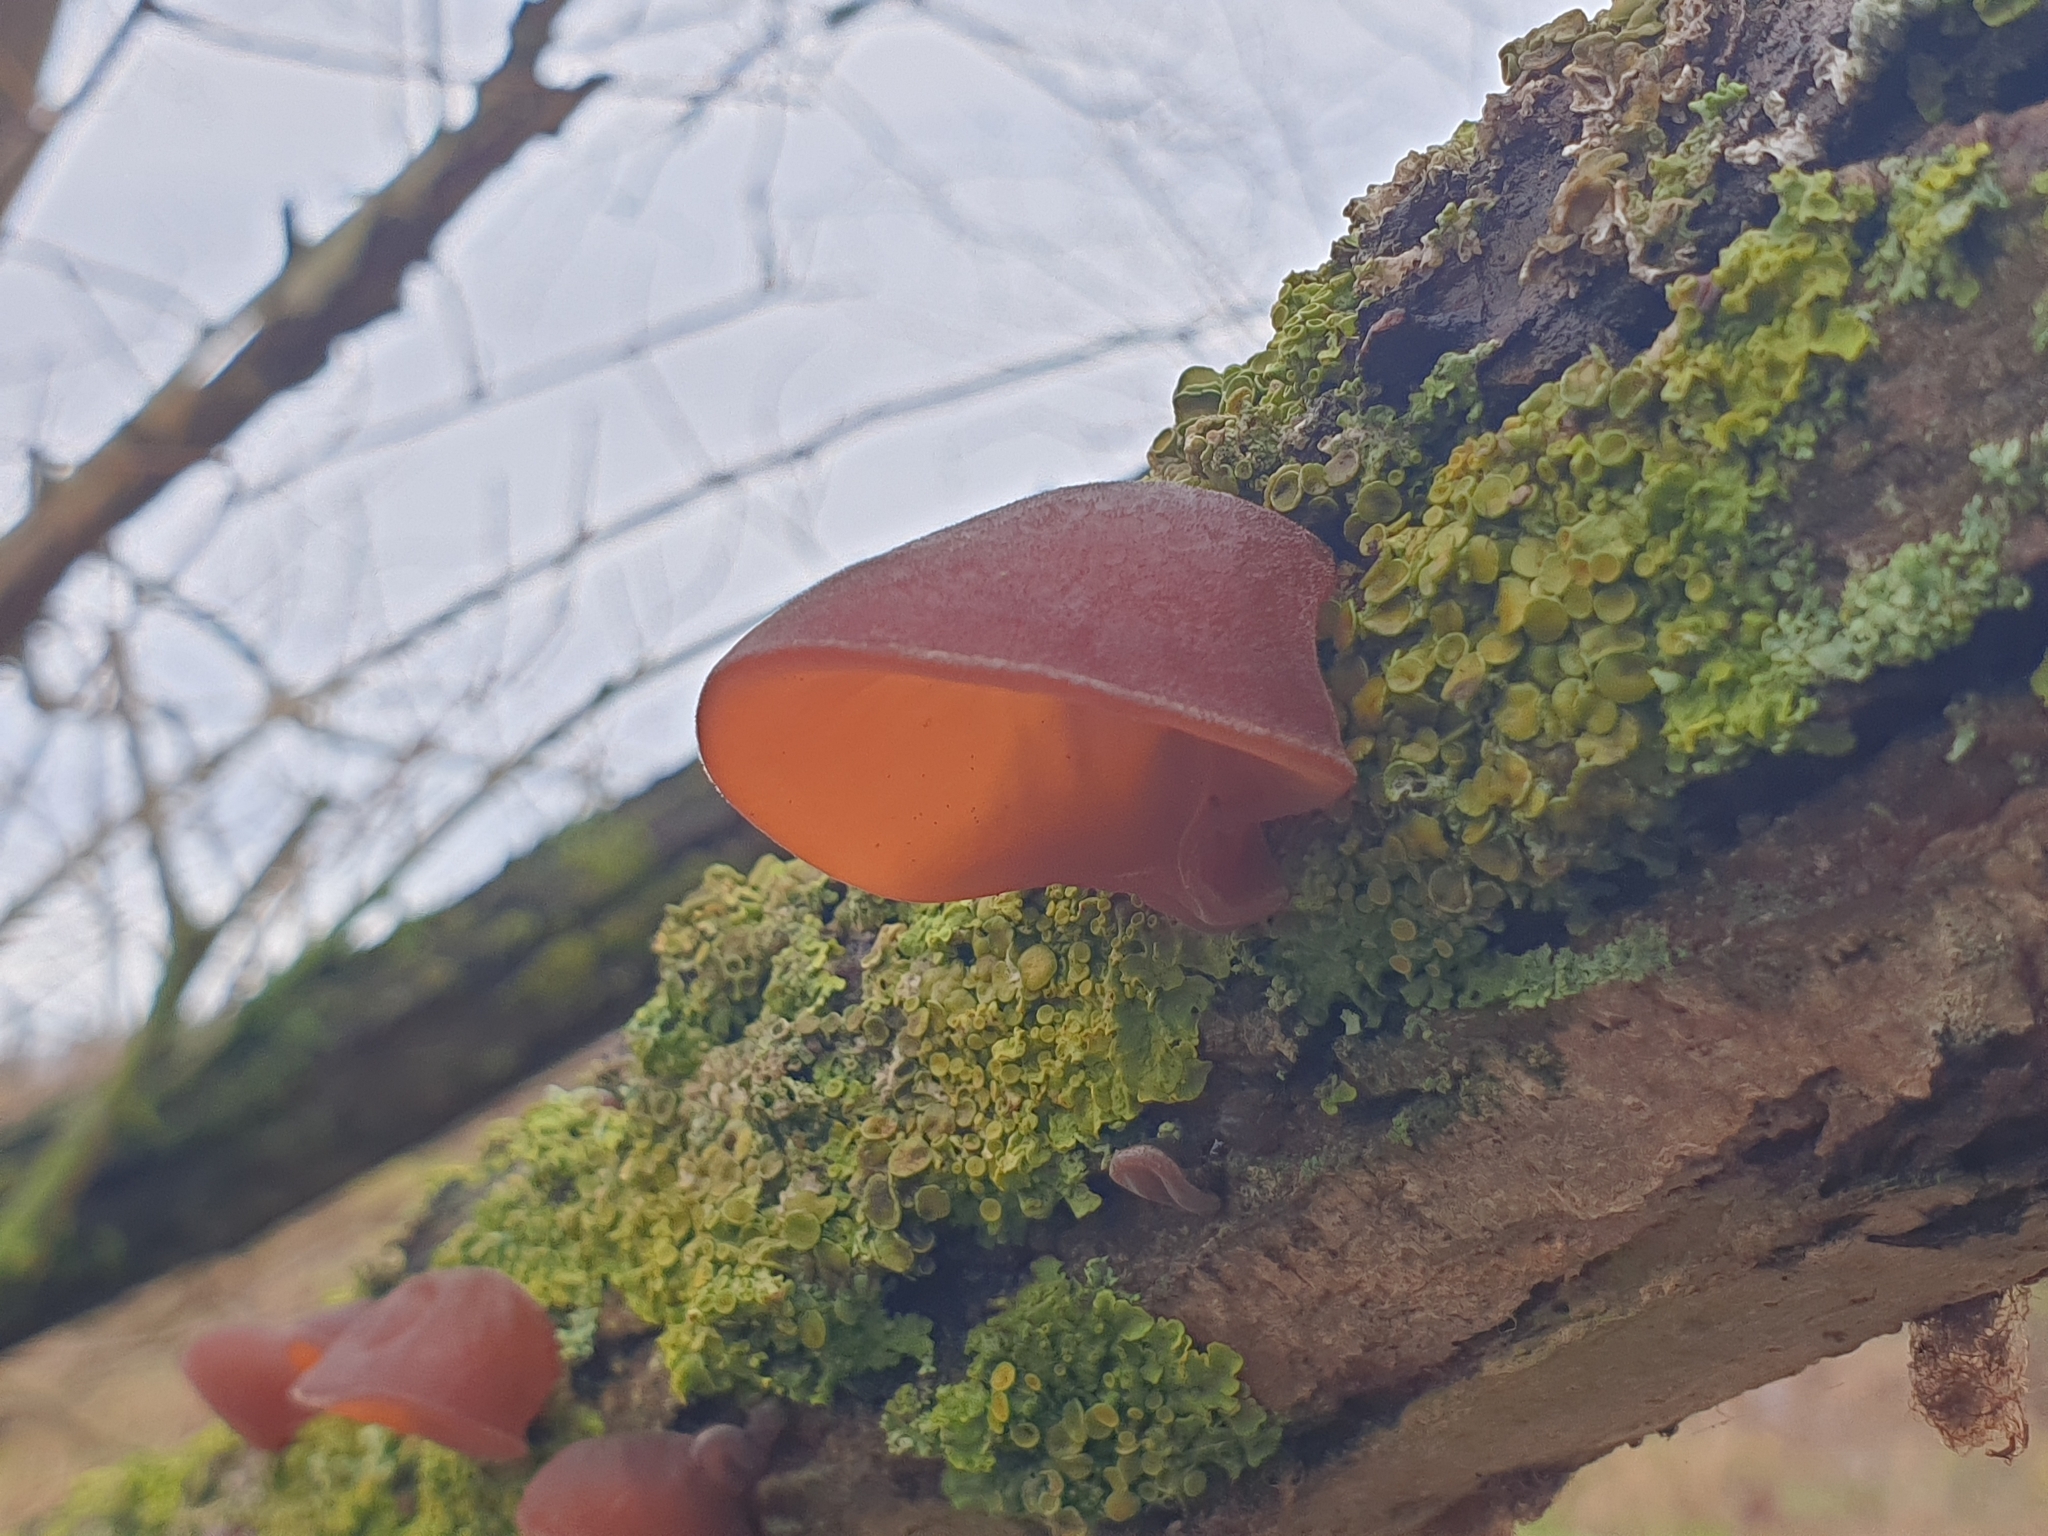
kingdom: Fungi
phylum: Basidiomycota
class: Agaricomycetes
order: Auriculariales
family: Auriculariaceae
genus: Auricularia
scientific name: Auricularia auricula-judae
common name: Jelly ear
